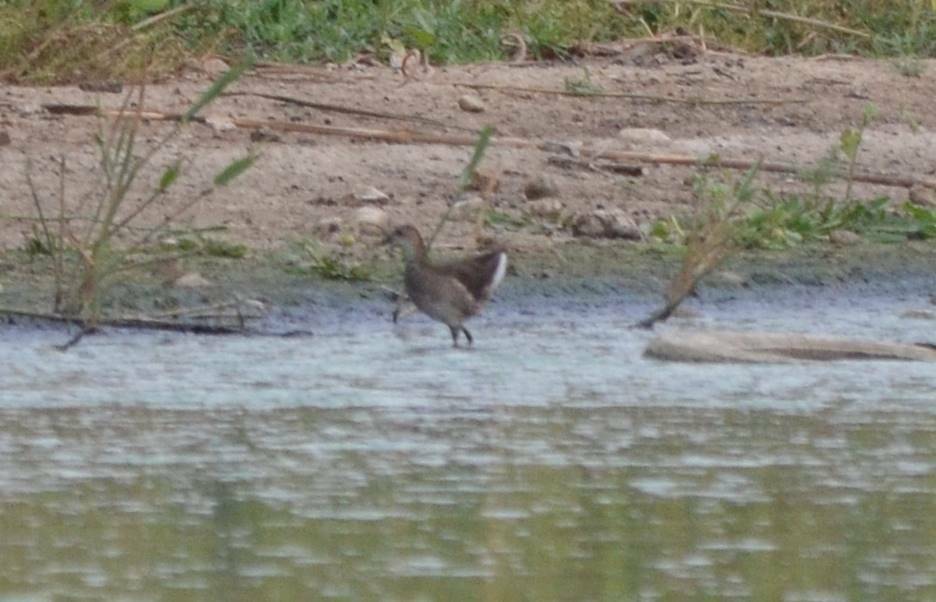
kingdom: Animalia
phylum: Chordata
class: Aves
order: Gruiformes
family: Rallidae
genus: Gallinula
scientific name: Gallinula chloropus
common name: Common moorhen
